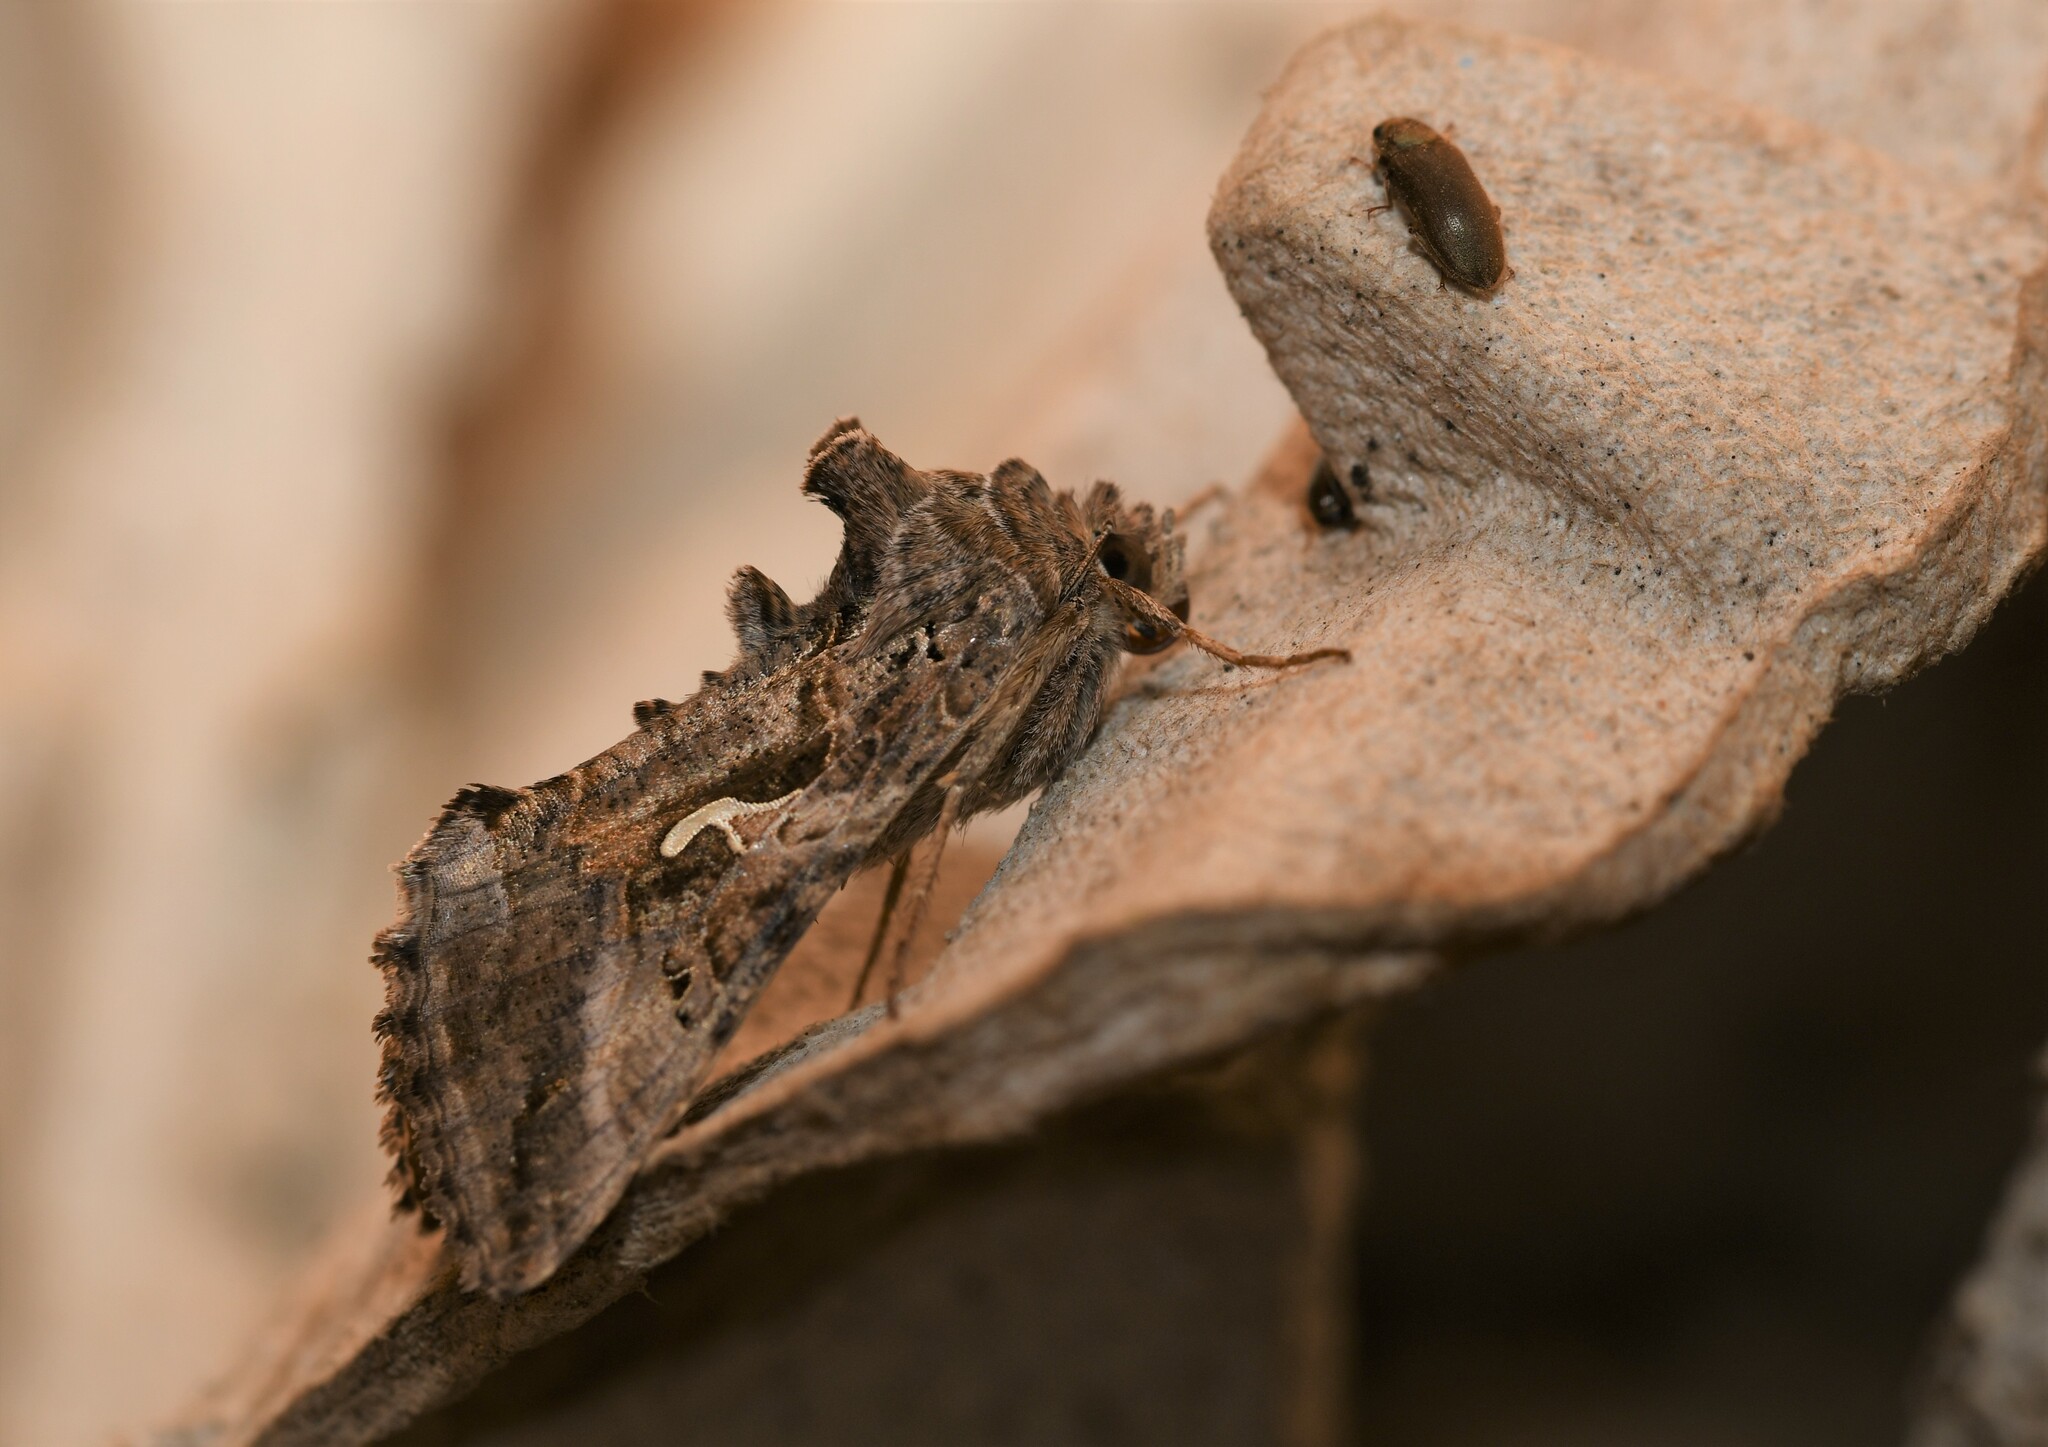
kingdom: Animalia
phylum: Arthropoda
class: Insecta
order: Lepidoptera
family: Noctuidae
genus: Autographa
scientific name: Autographa gamma
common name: Silver y
